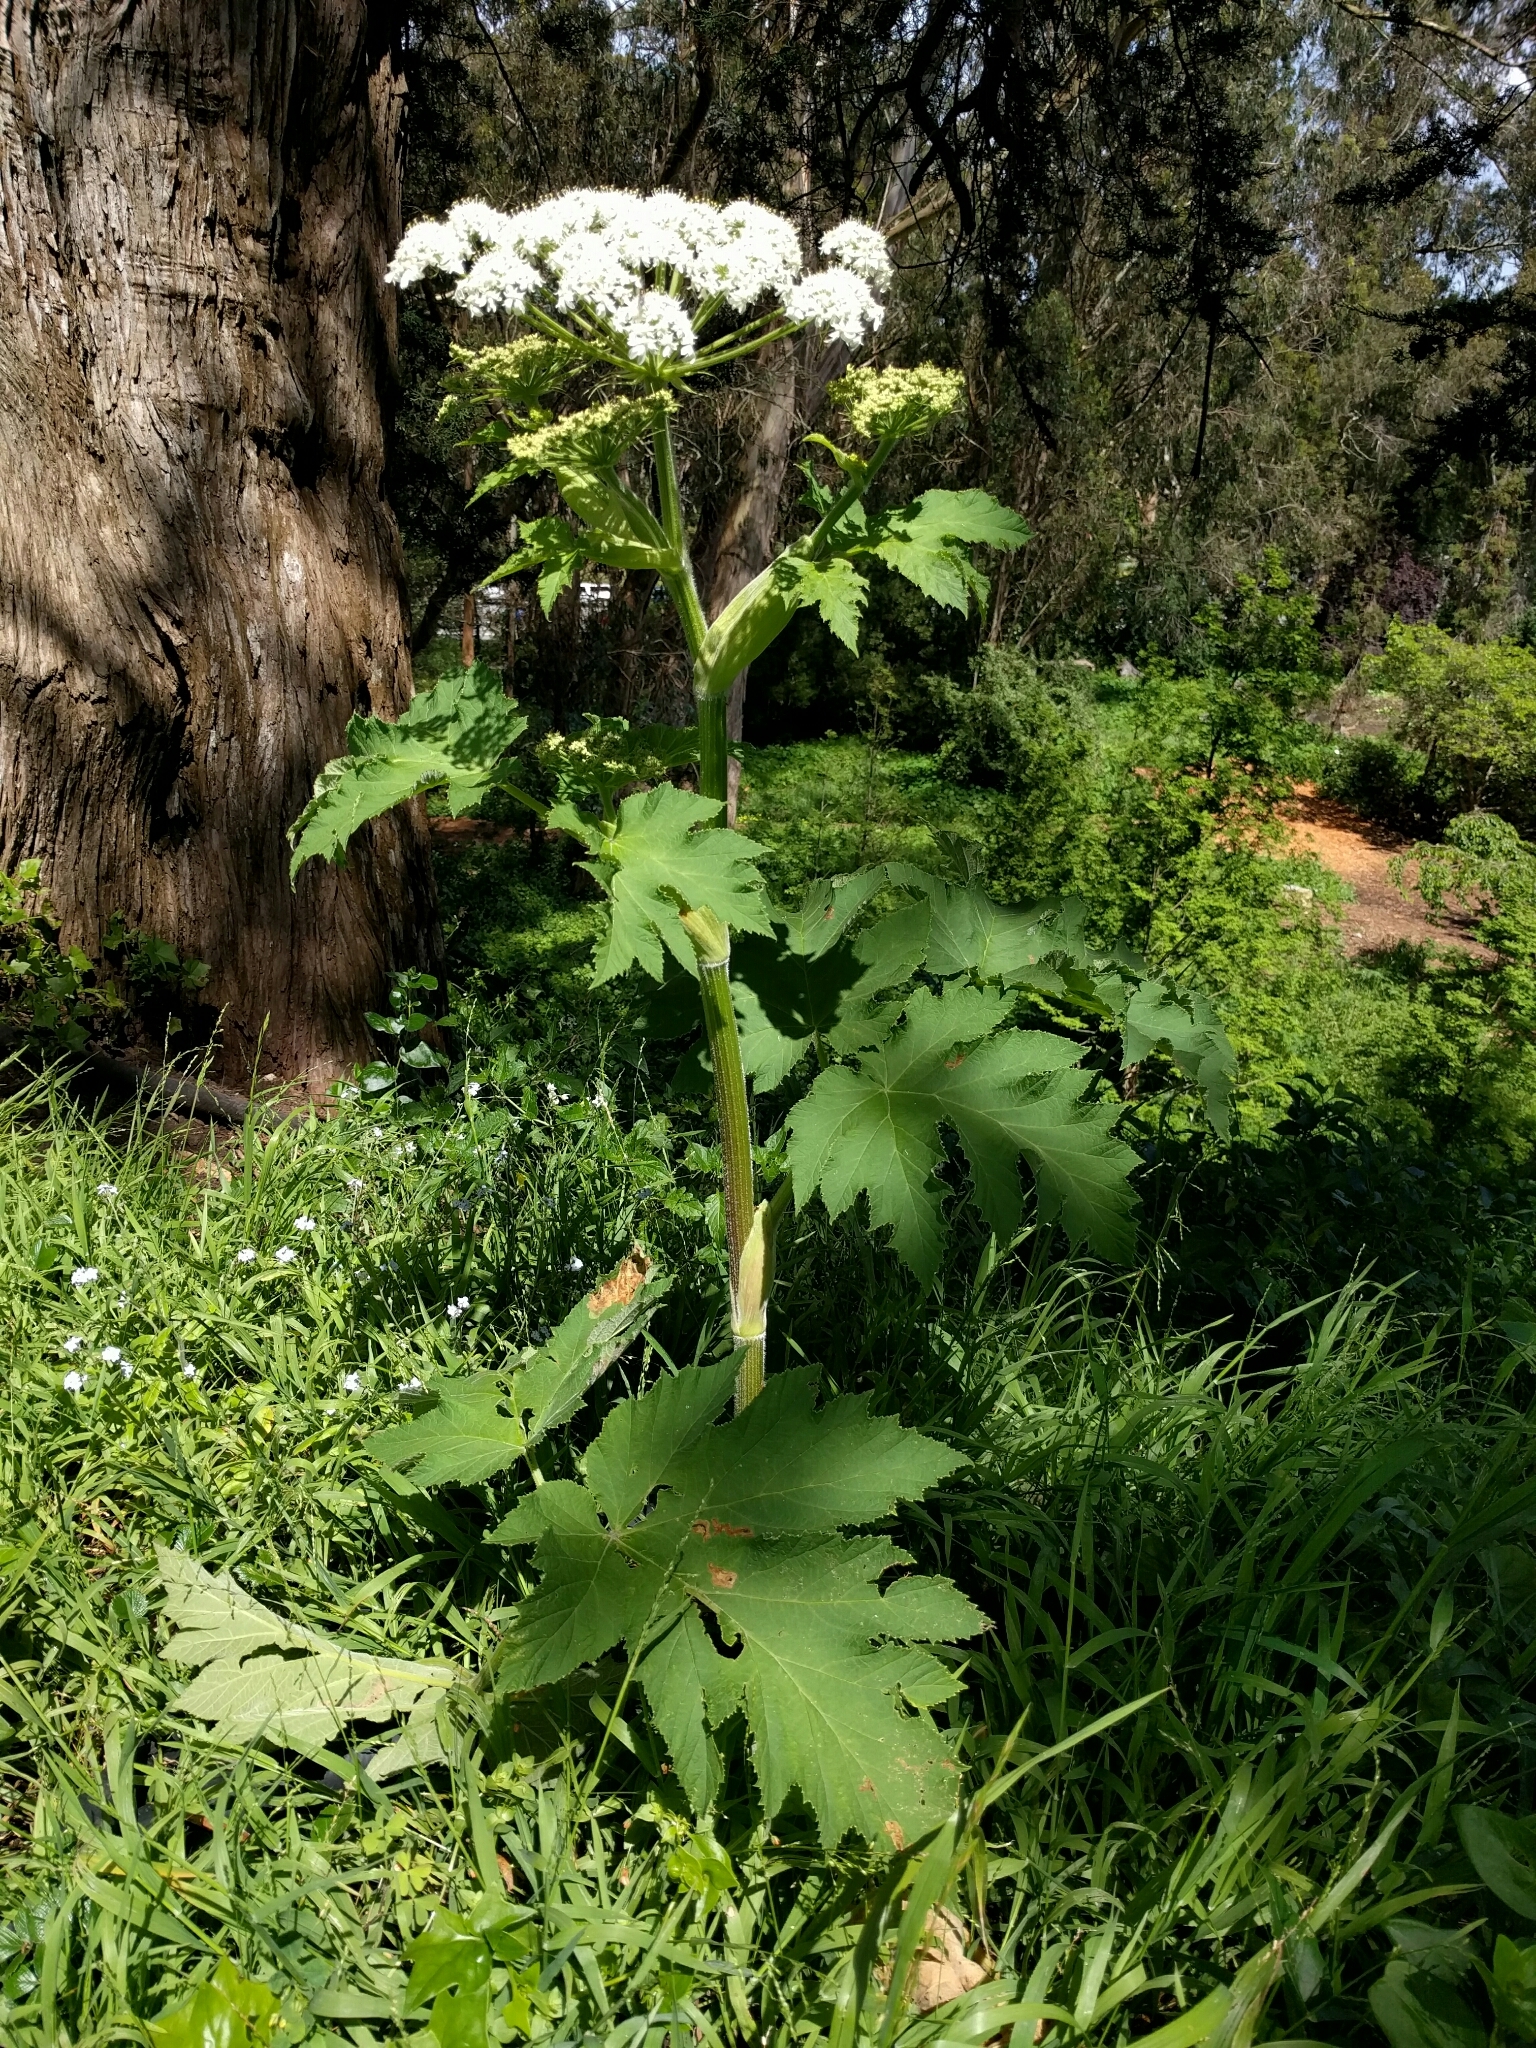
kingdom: Plantae
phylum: Tracheophyta
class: Magnoliopsida
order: Apiales
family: Apiaceae
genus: Heracleum
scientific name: Heracleum maximum
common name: American cow parsnip
